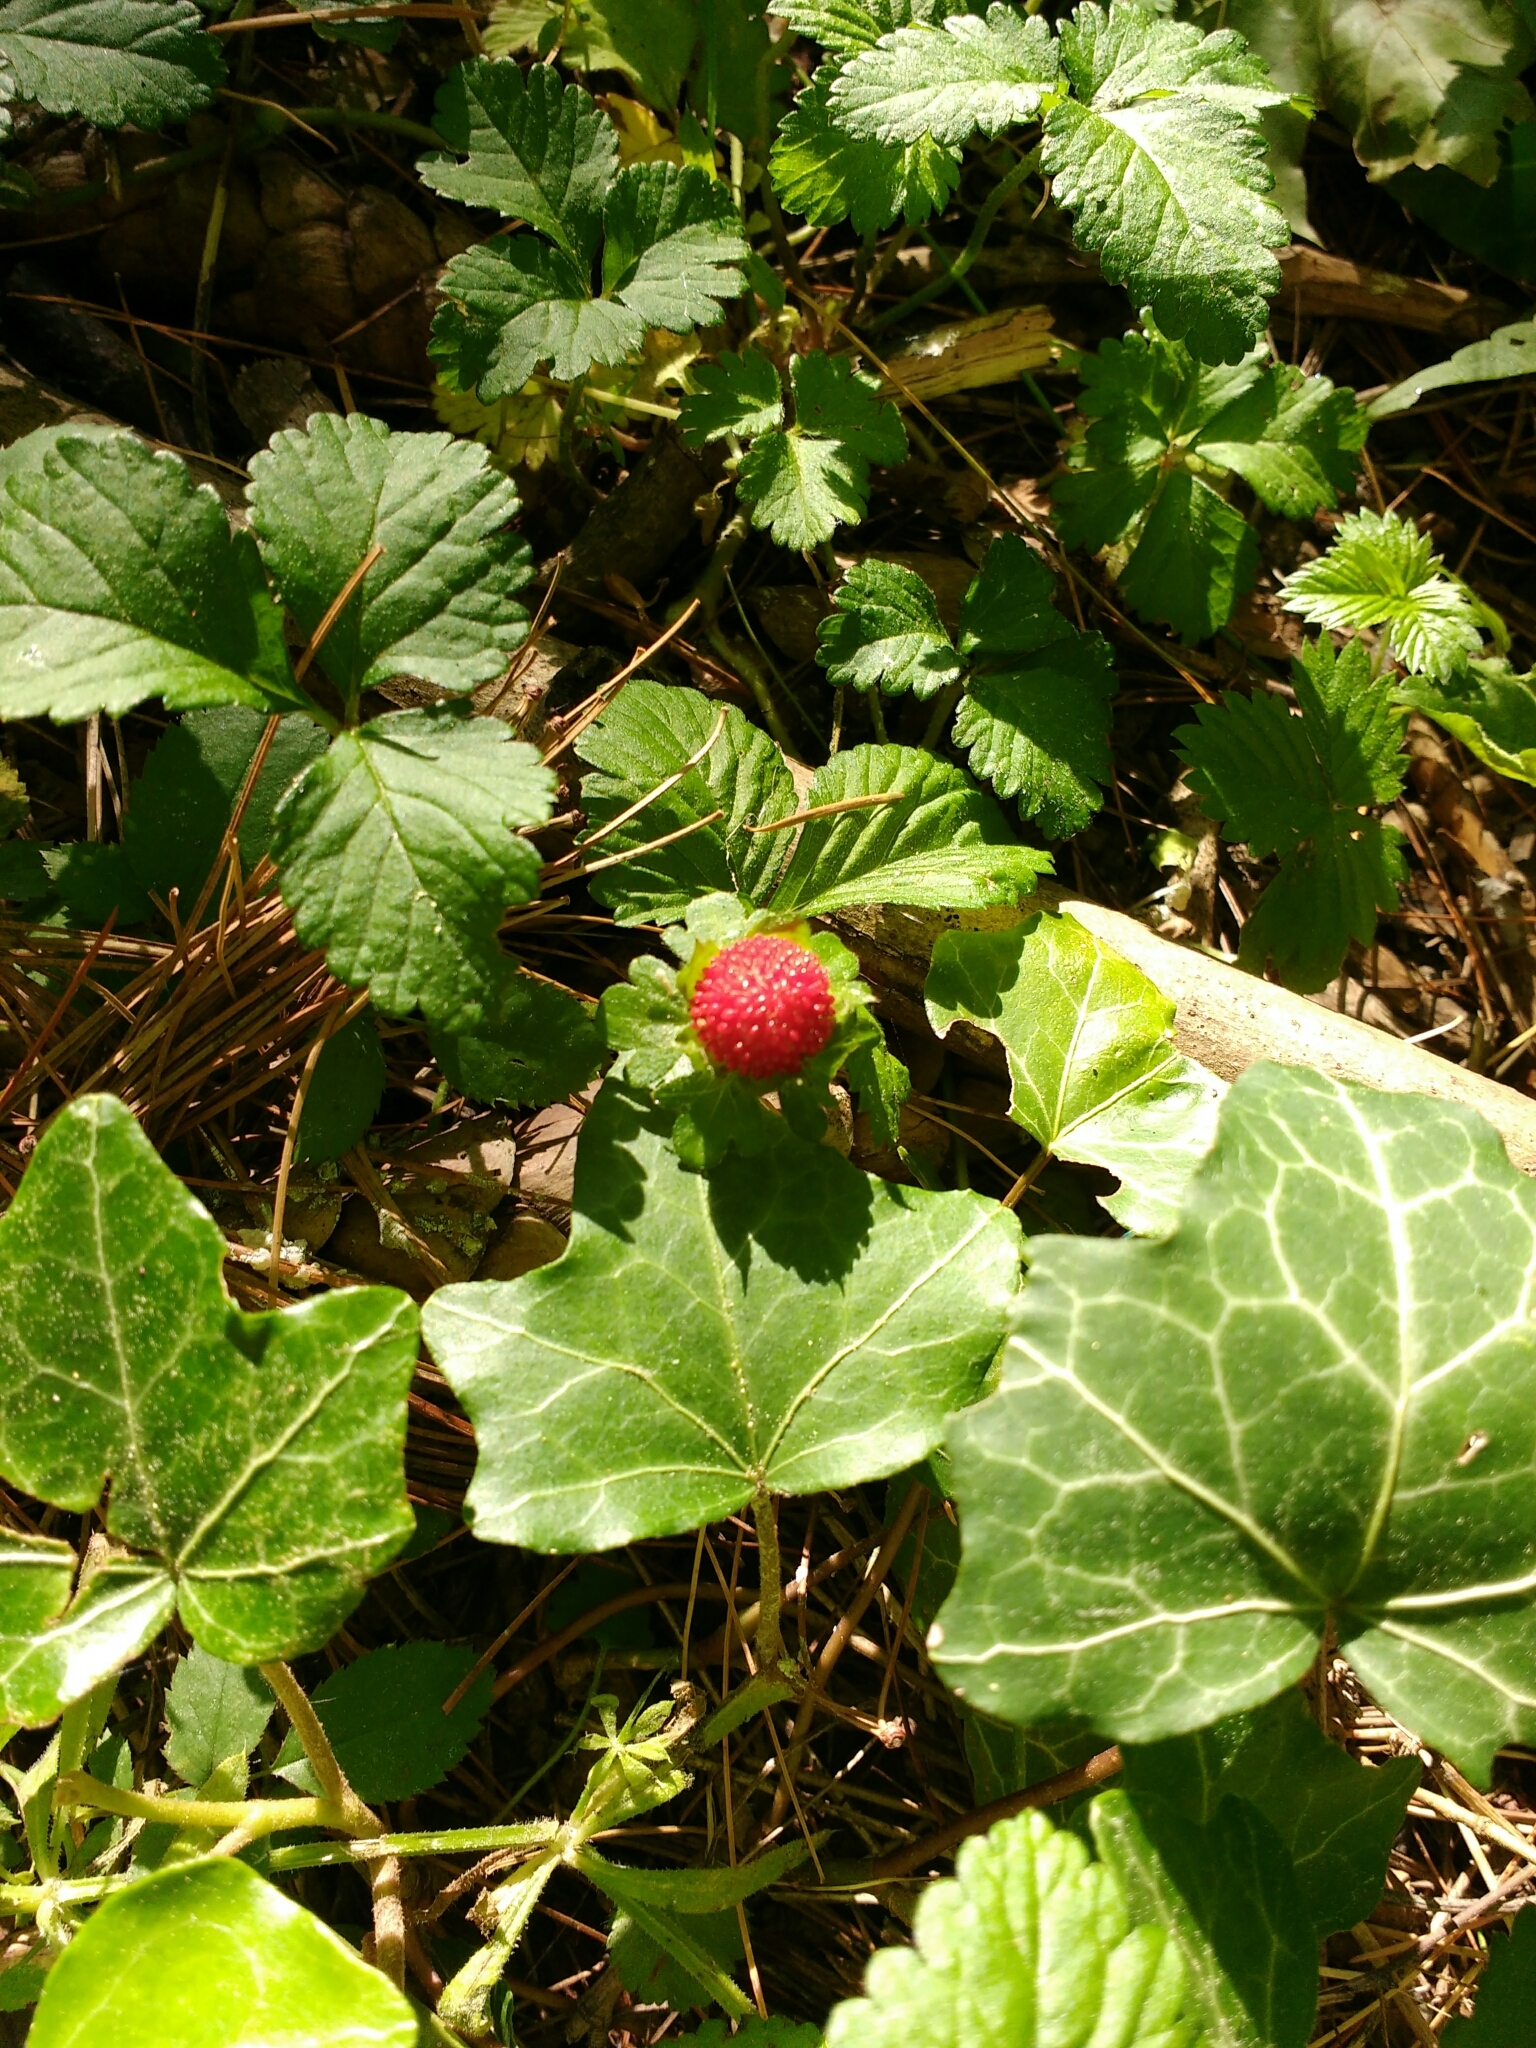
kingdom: Plantae
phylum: Tracheophyta
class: Magnoliopsida
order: Rosales
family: Rosaceae
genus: Potentilla
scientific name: Potentilla indica
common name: Yellow-flowered strawberry
